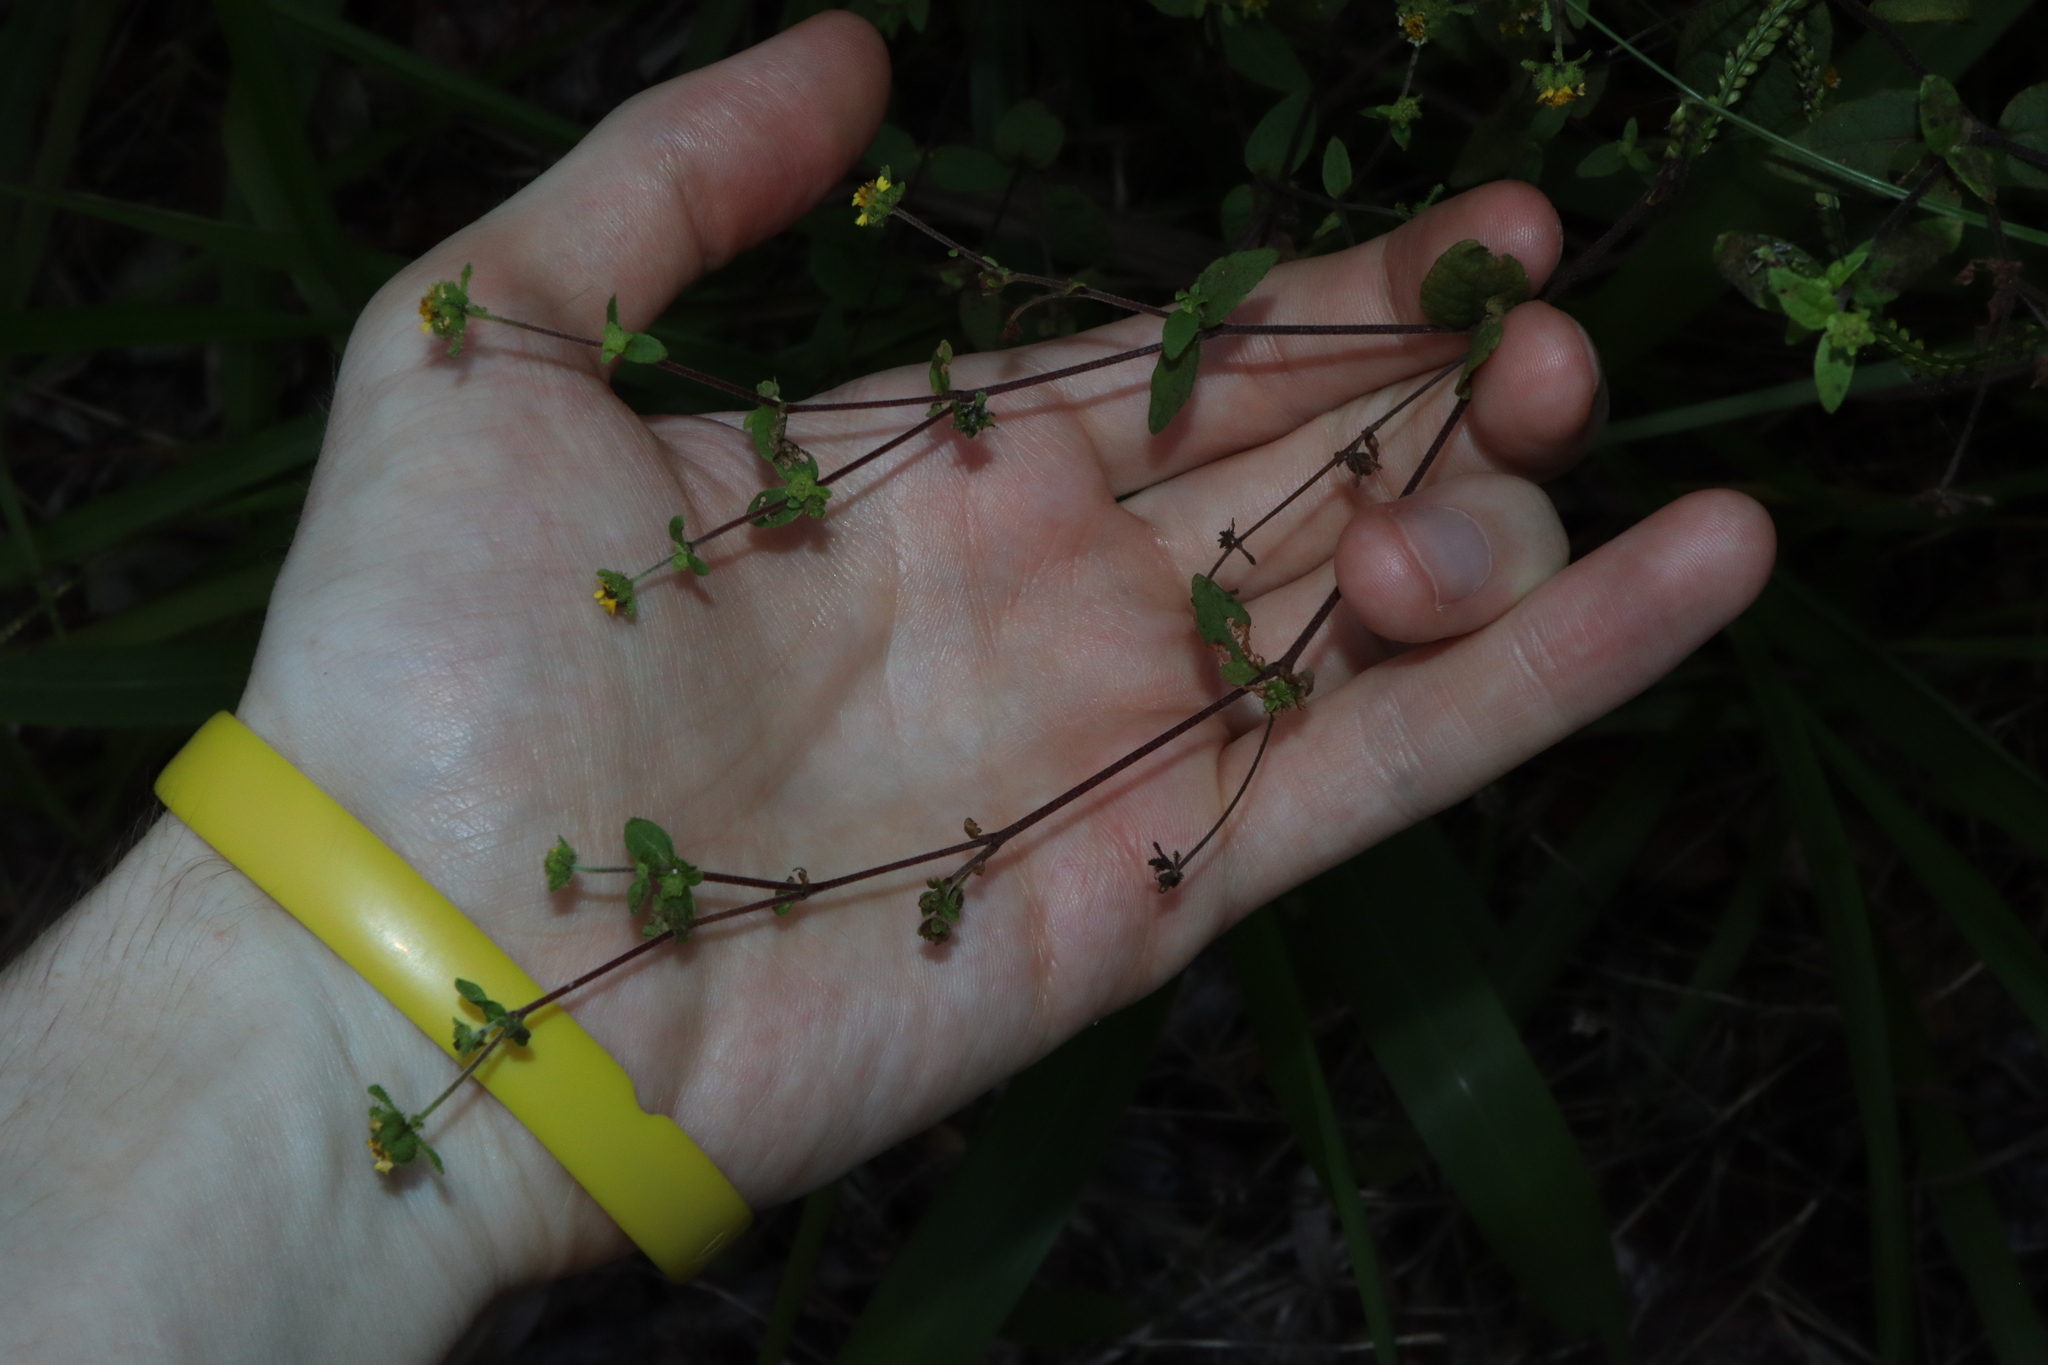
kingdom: Plantae
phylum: Tracheophyta
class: Magnoliopsida
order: Asterales
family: Asteraceae
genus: Sigesbeckia
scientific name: Sigesbeckia orientalis
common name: Eastern st paul's-wort
